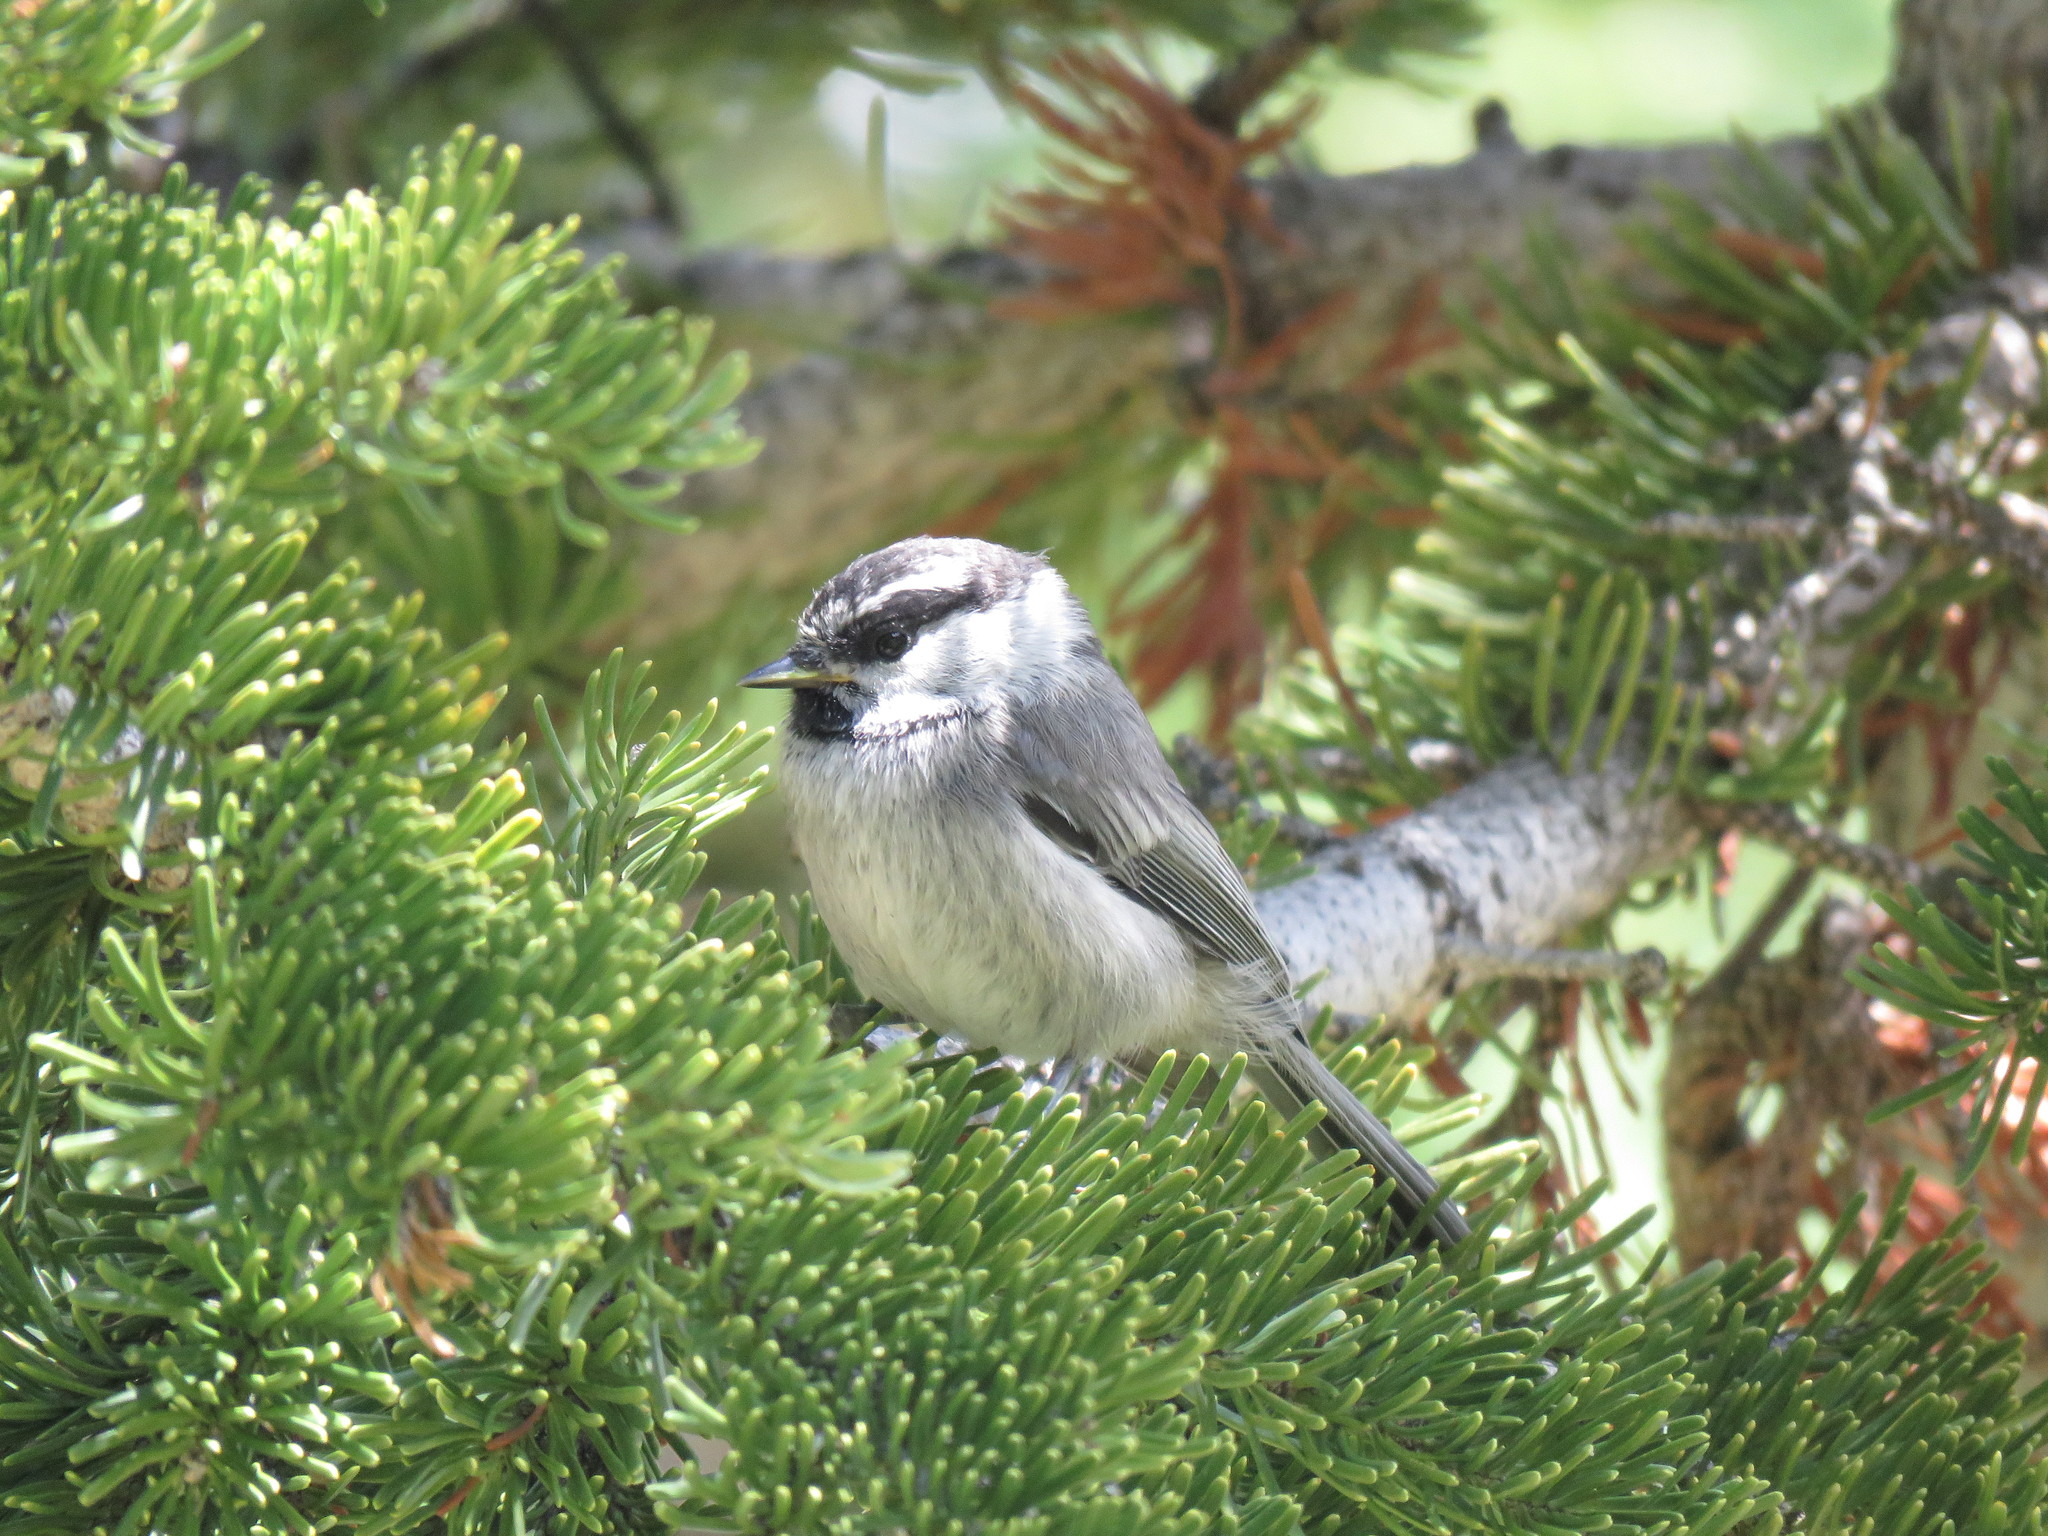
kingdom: Animalia
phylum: Chordata
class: Aves
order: Passeriformes
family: Paridae
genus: Poecile
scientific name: Poecile gambeli
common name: Mountain chickadee
